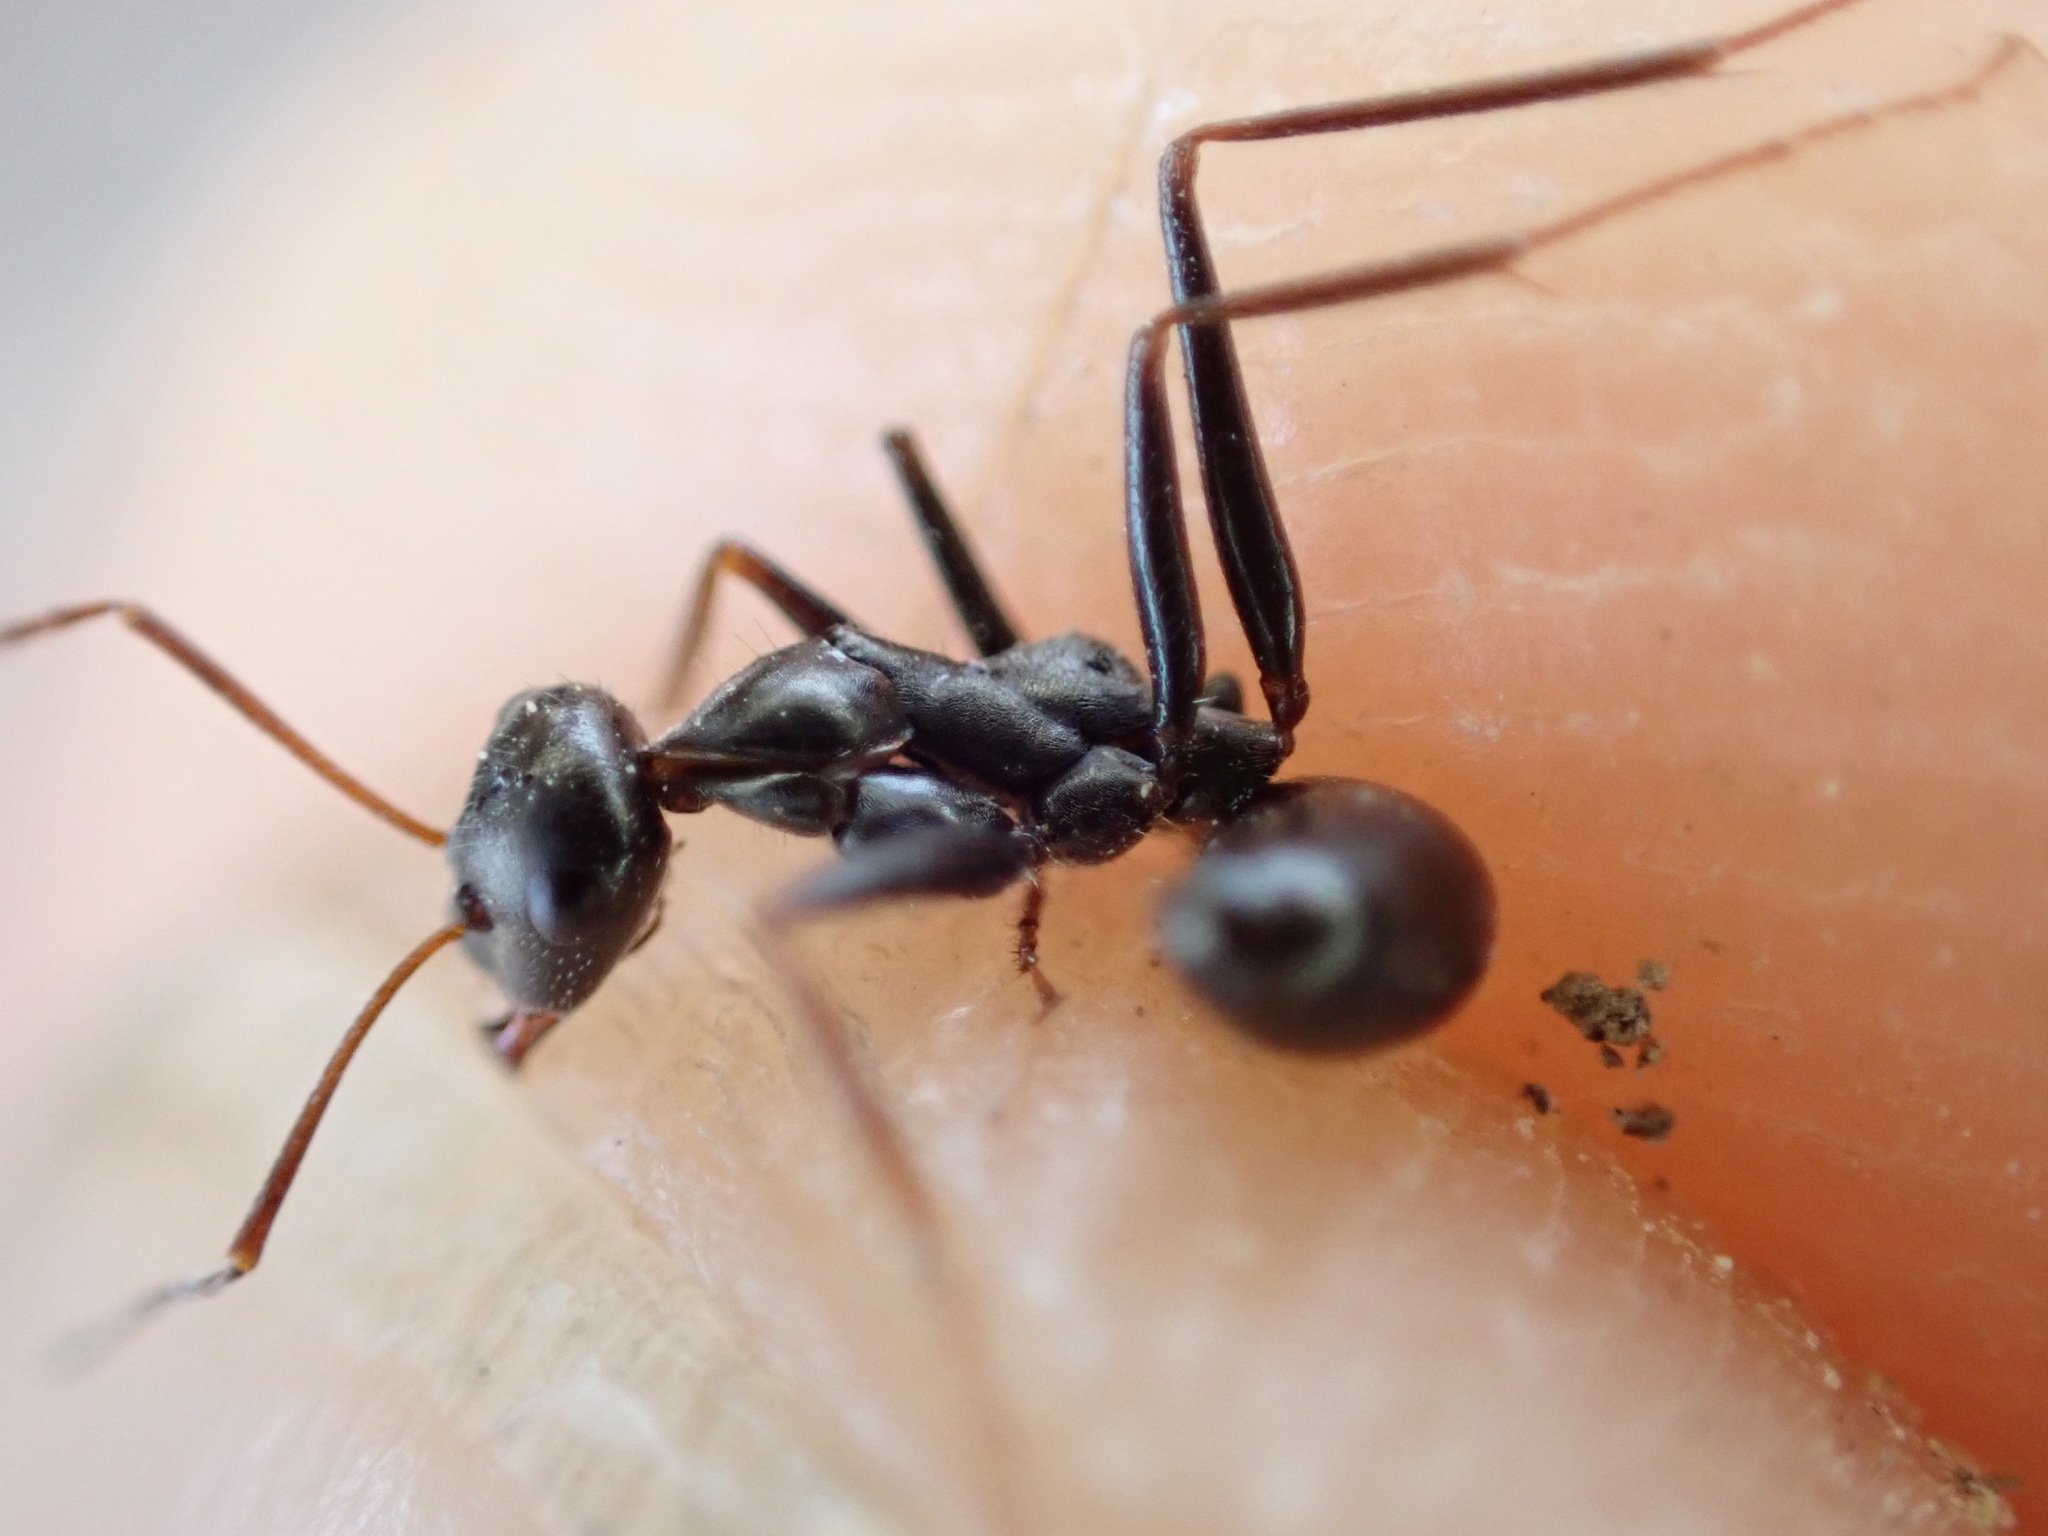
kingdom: Animalia
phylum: Arthropoda
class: Insecta
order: Hymenoptera
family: Formicidae
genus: Cataglyphis
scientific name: Cataglyphis cursor
